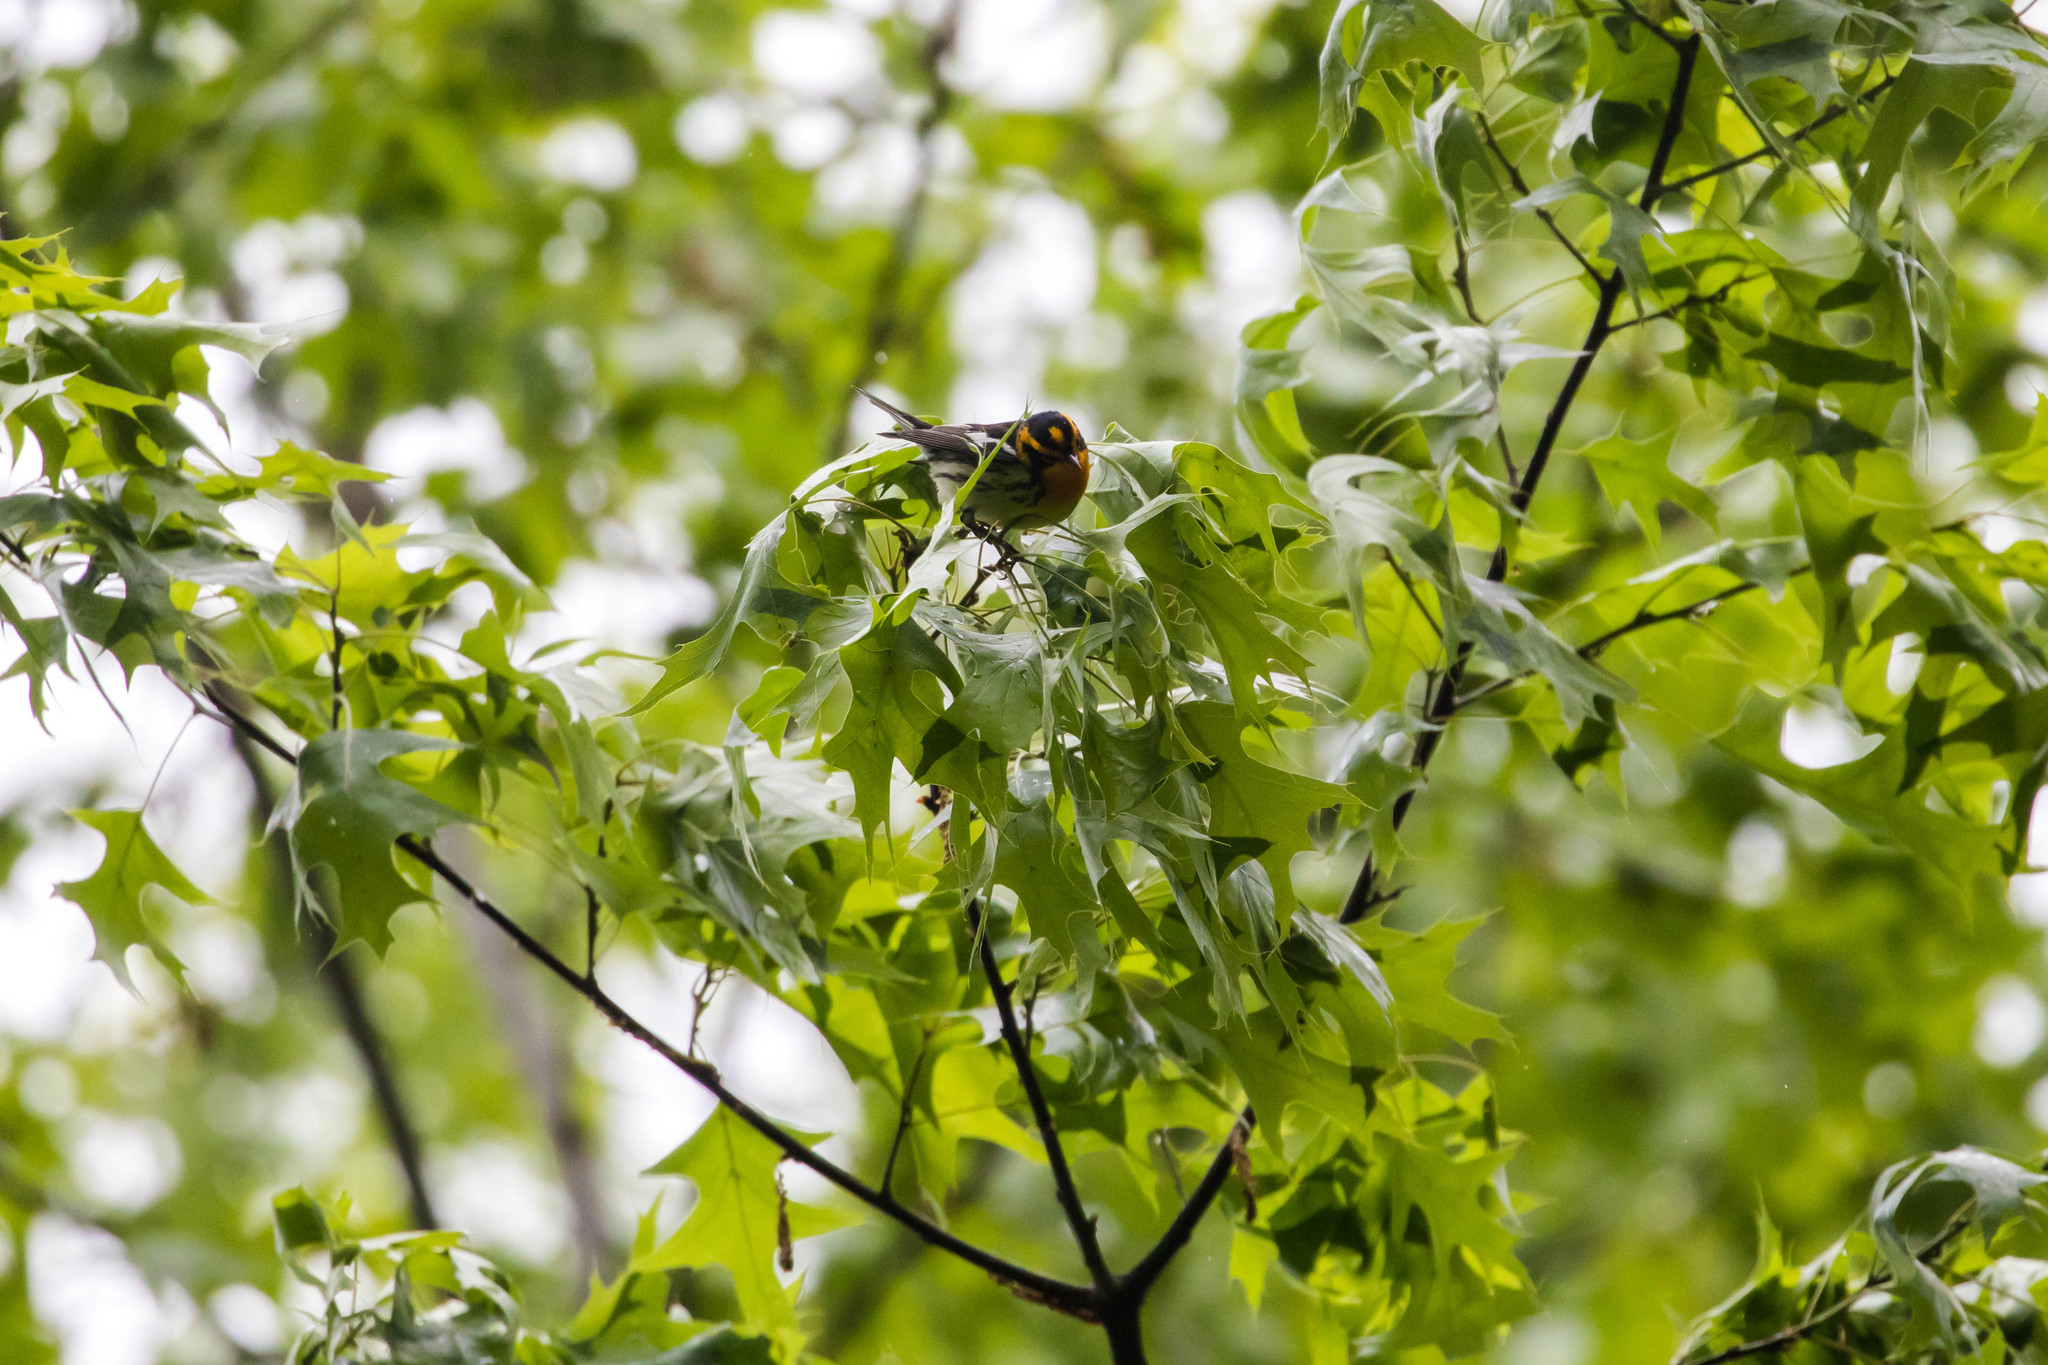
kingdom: Animalia
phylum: Chordata
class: Aves
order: Passeriformes
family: Parulidae
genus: Setophaga
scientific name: Setophaga fusca
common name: Blackburnian warbler
